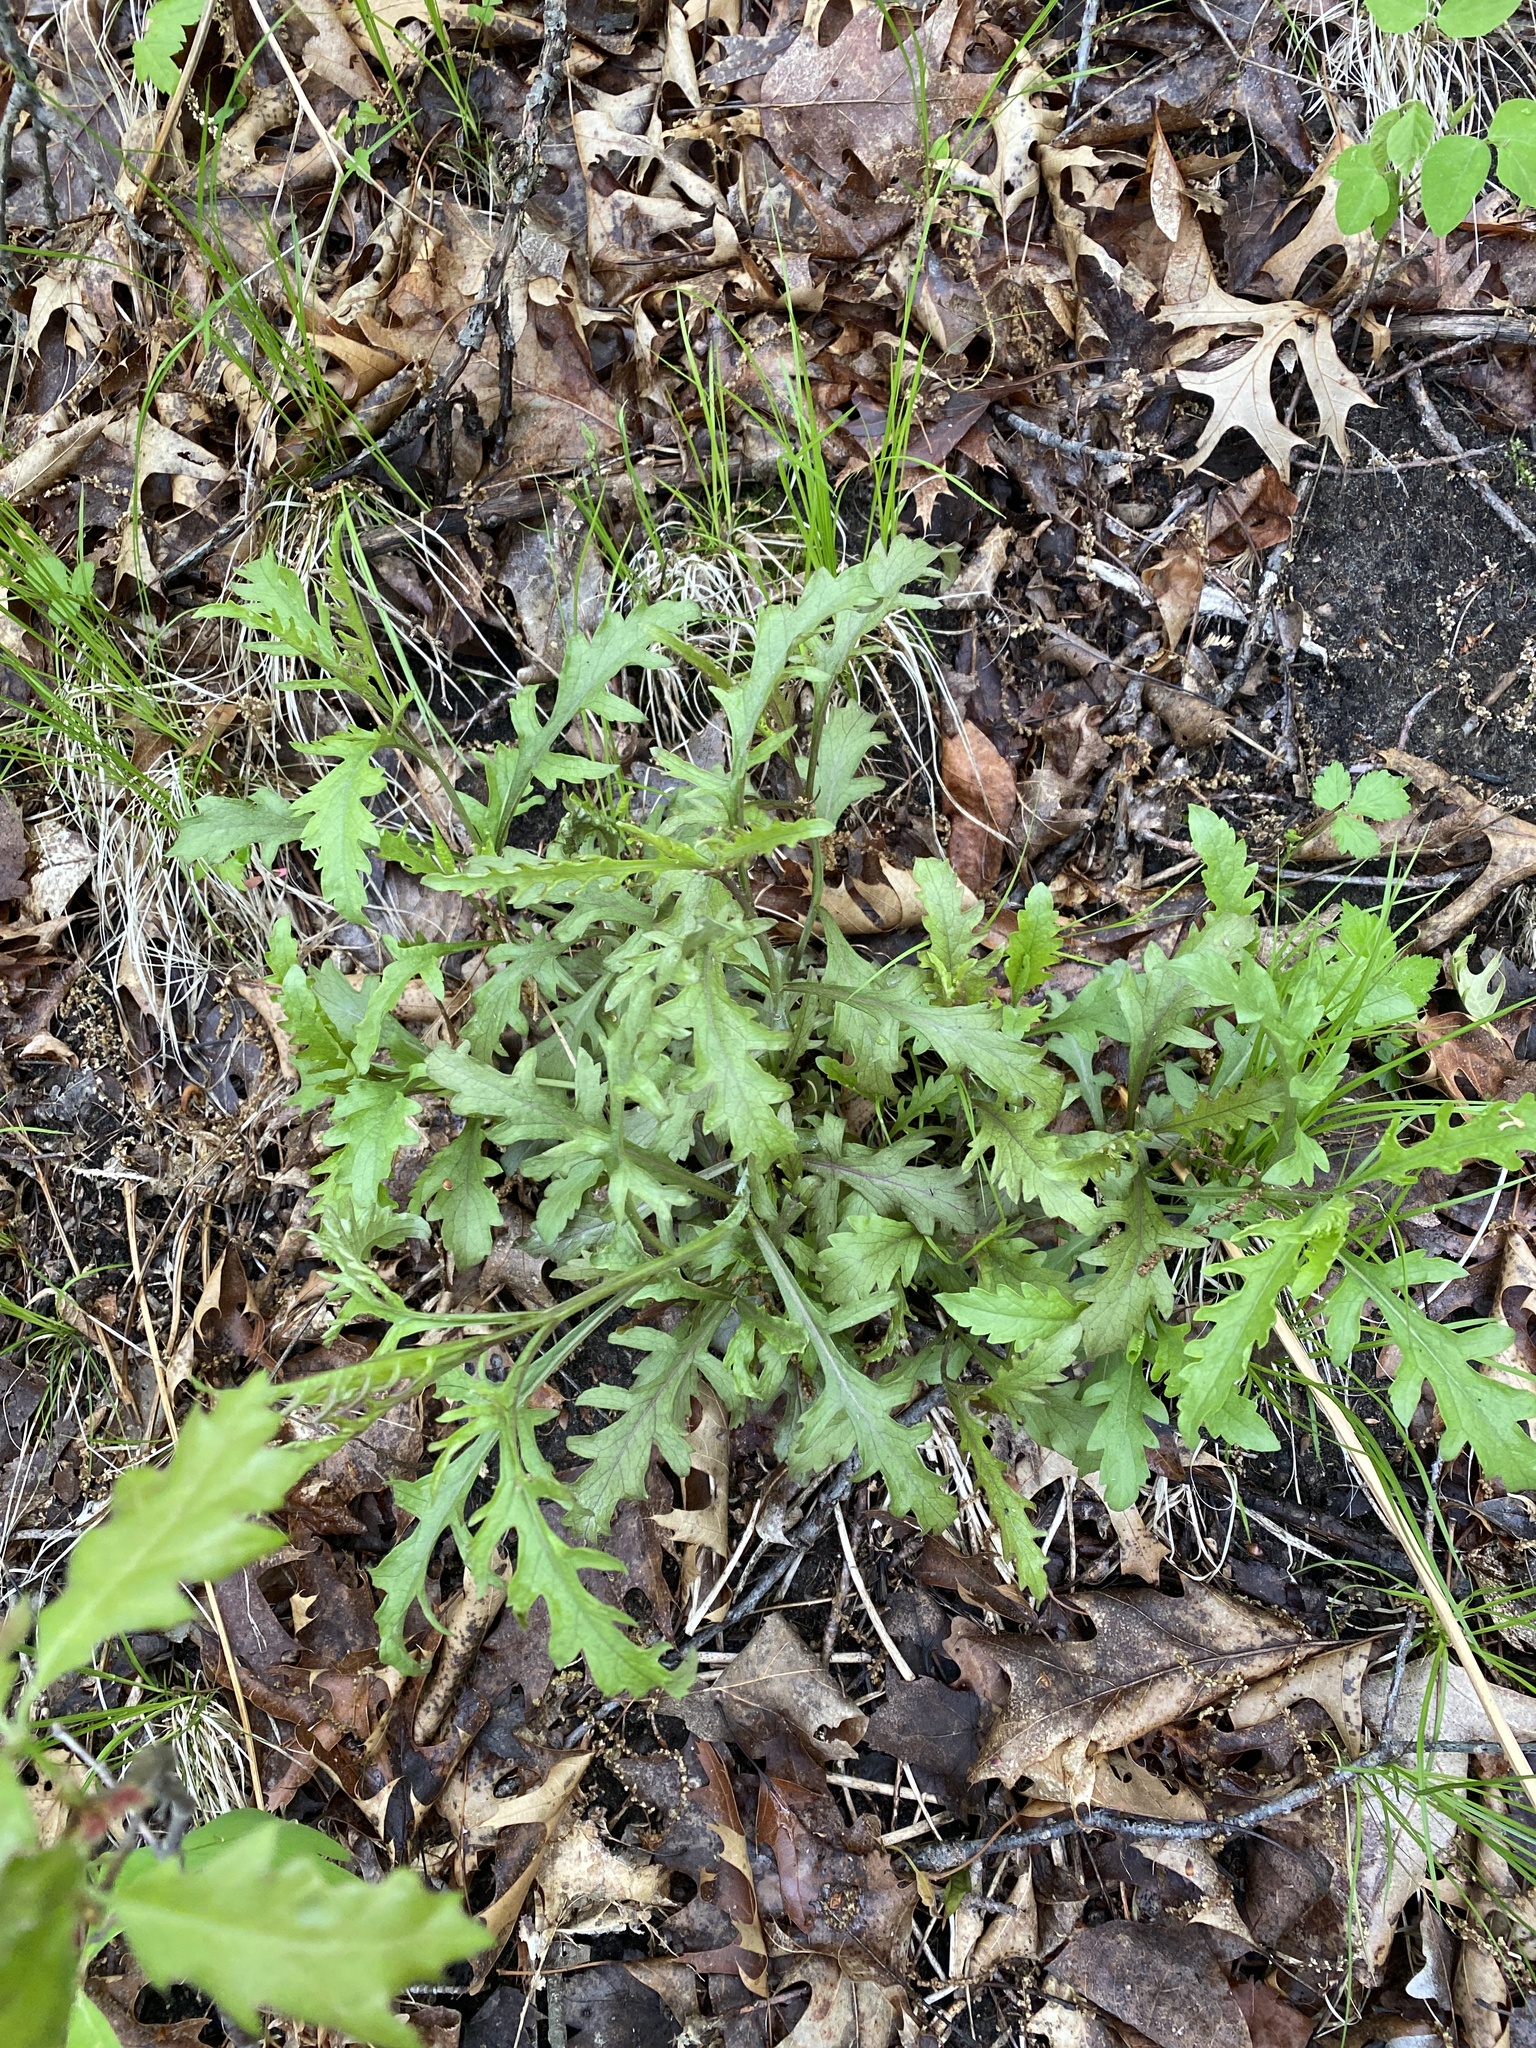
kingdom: Plantae
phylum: Tracheophyta
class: Magnoliopsida
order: Lamiales
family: Orobanchaceae
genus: Aureolaria
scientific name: Aureolaria flava
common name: Smooth false foxglove
